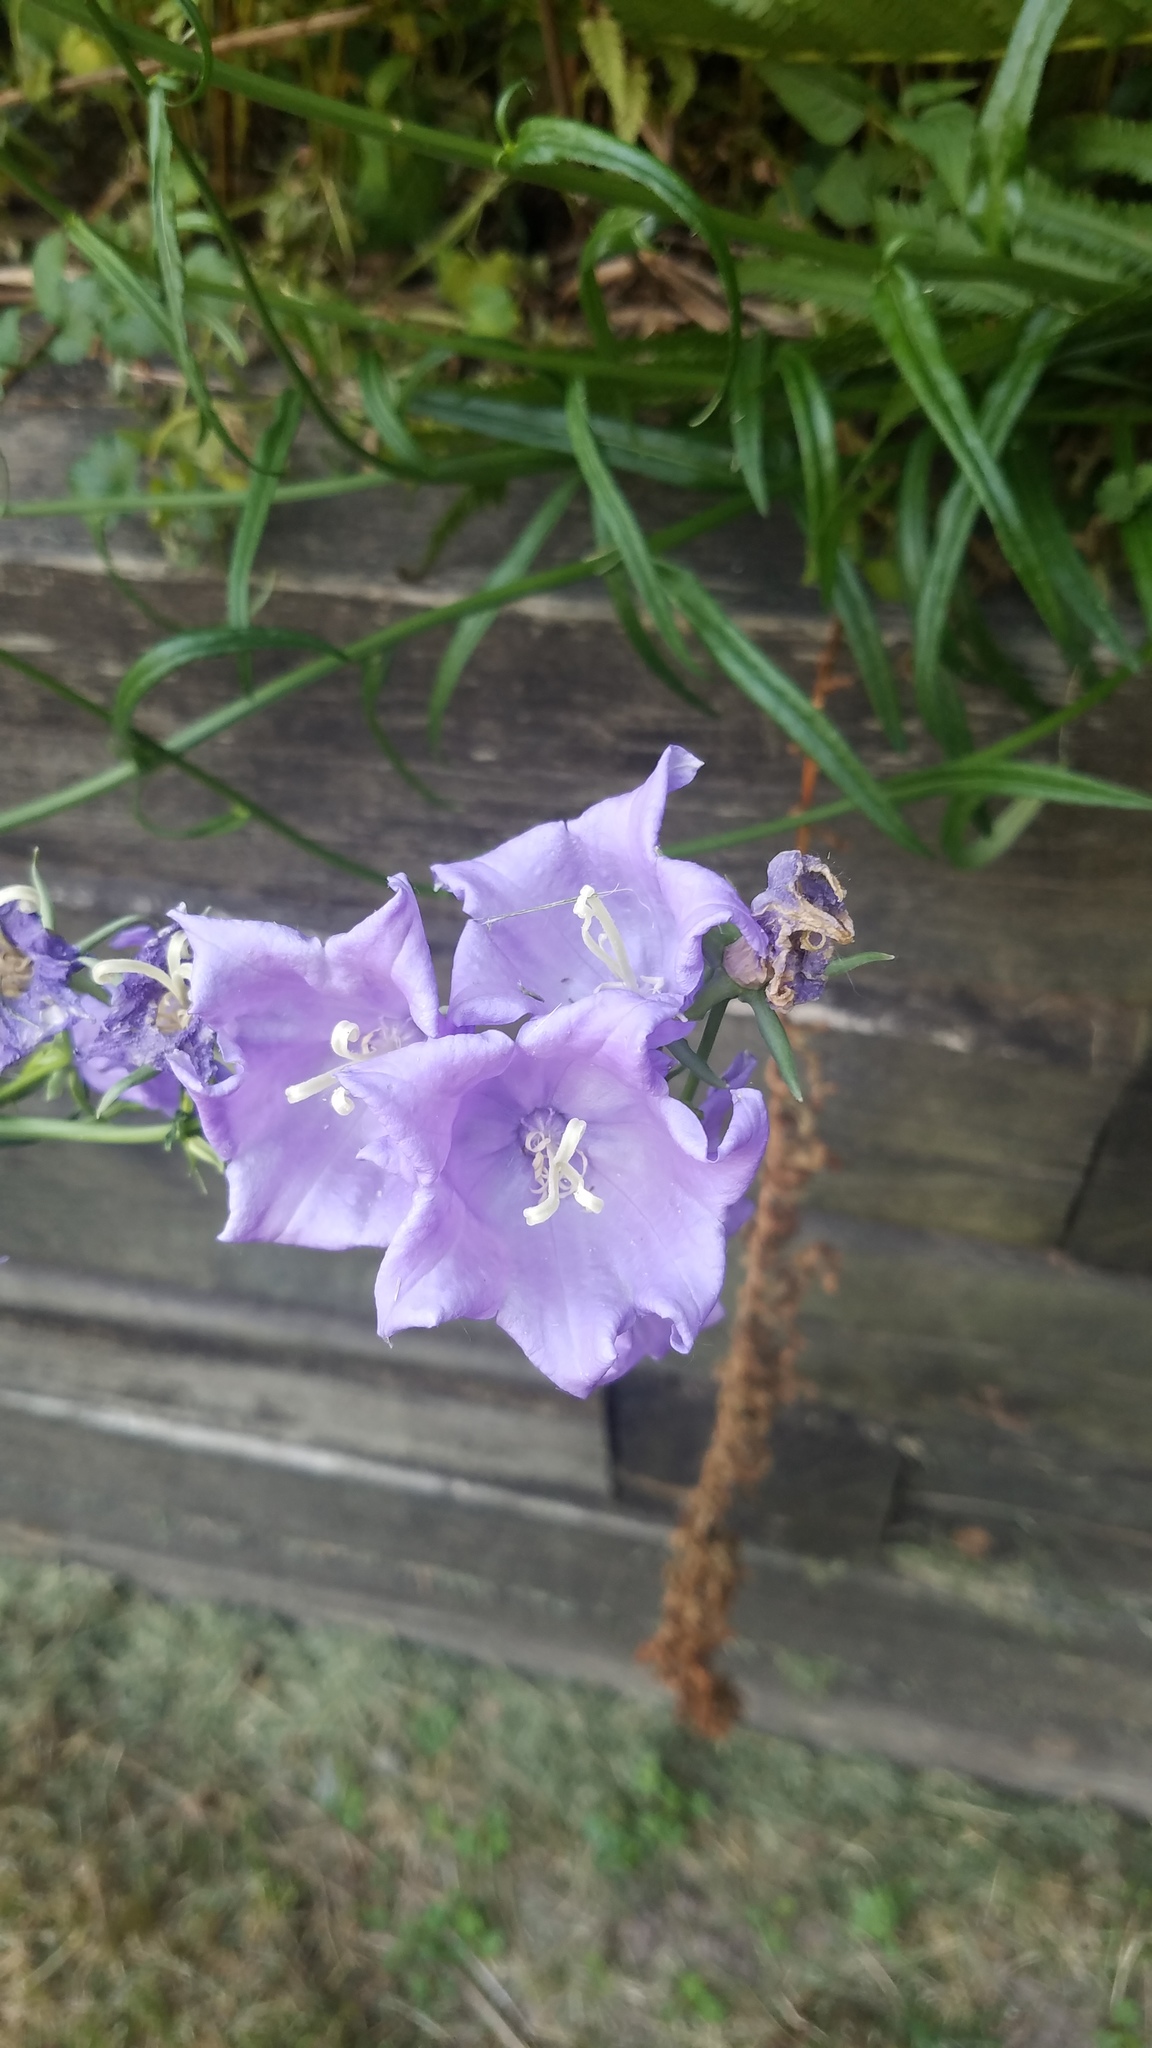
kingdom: Plantae
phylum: Tracheophyta
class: Magnoliopsida
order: Asterales
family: Campanulaceae
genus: Campanula
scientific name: Campanula persicifolia
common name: Peach-leaved bellflower
